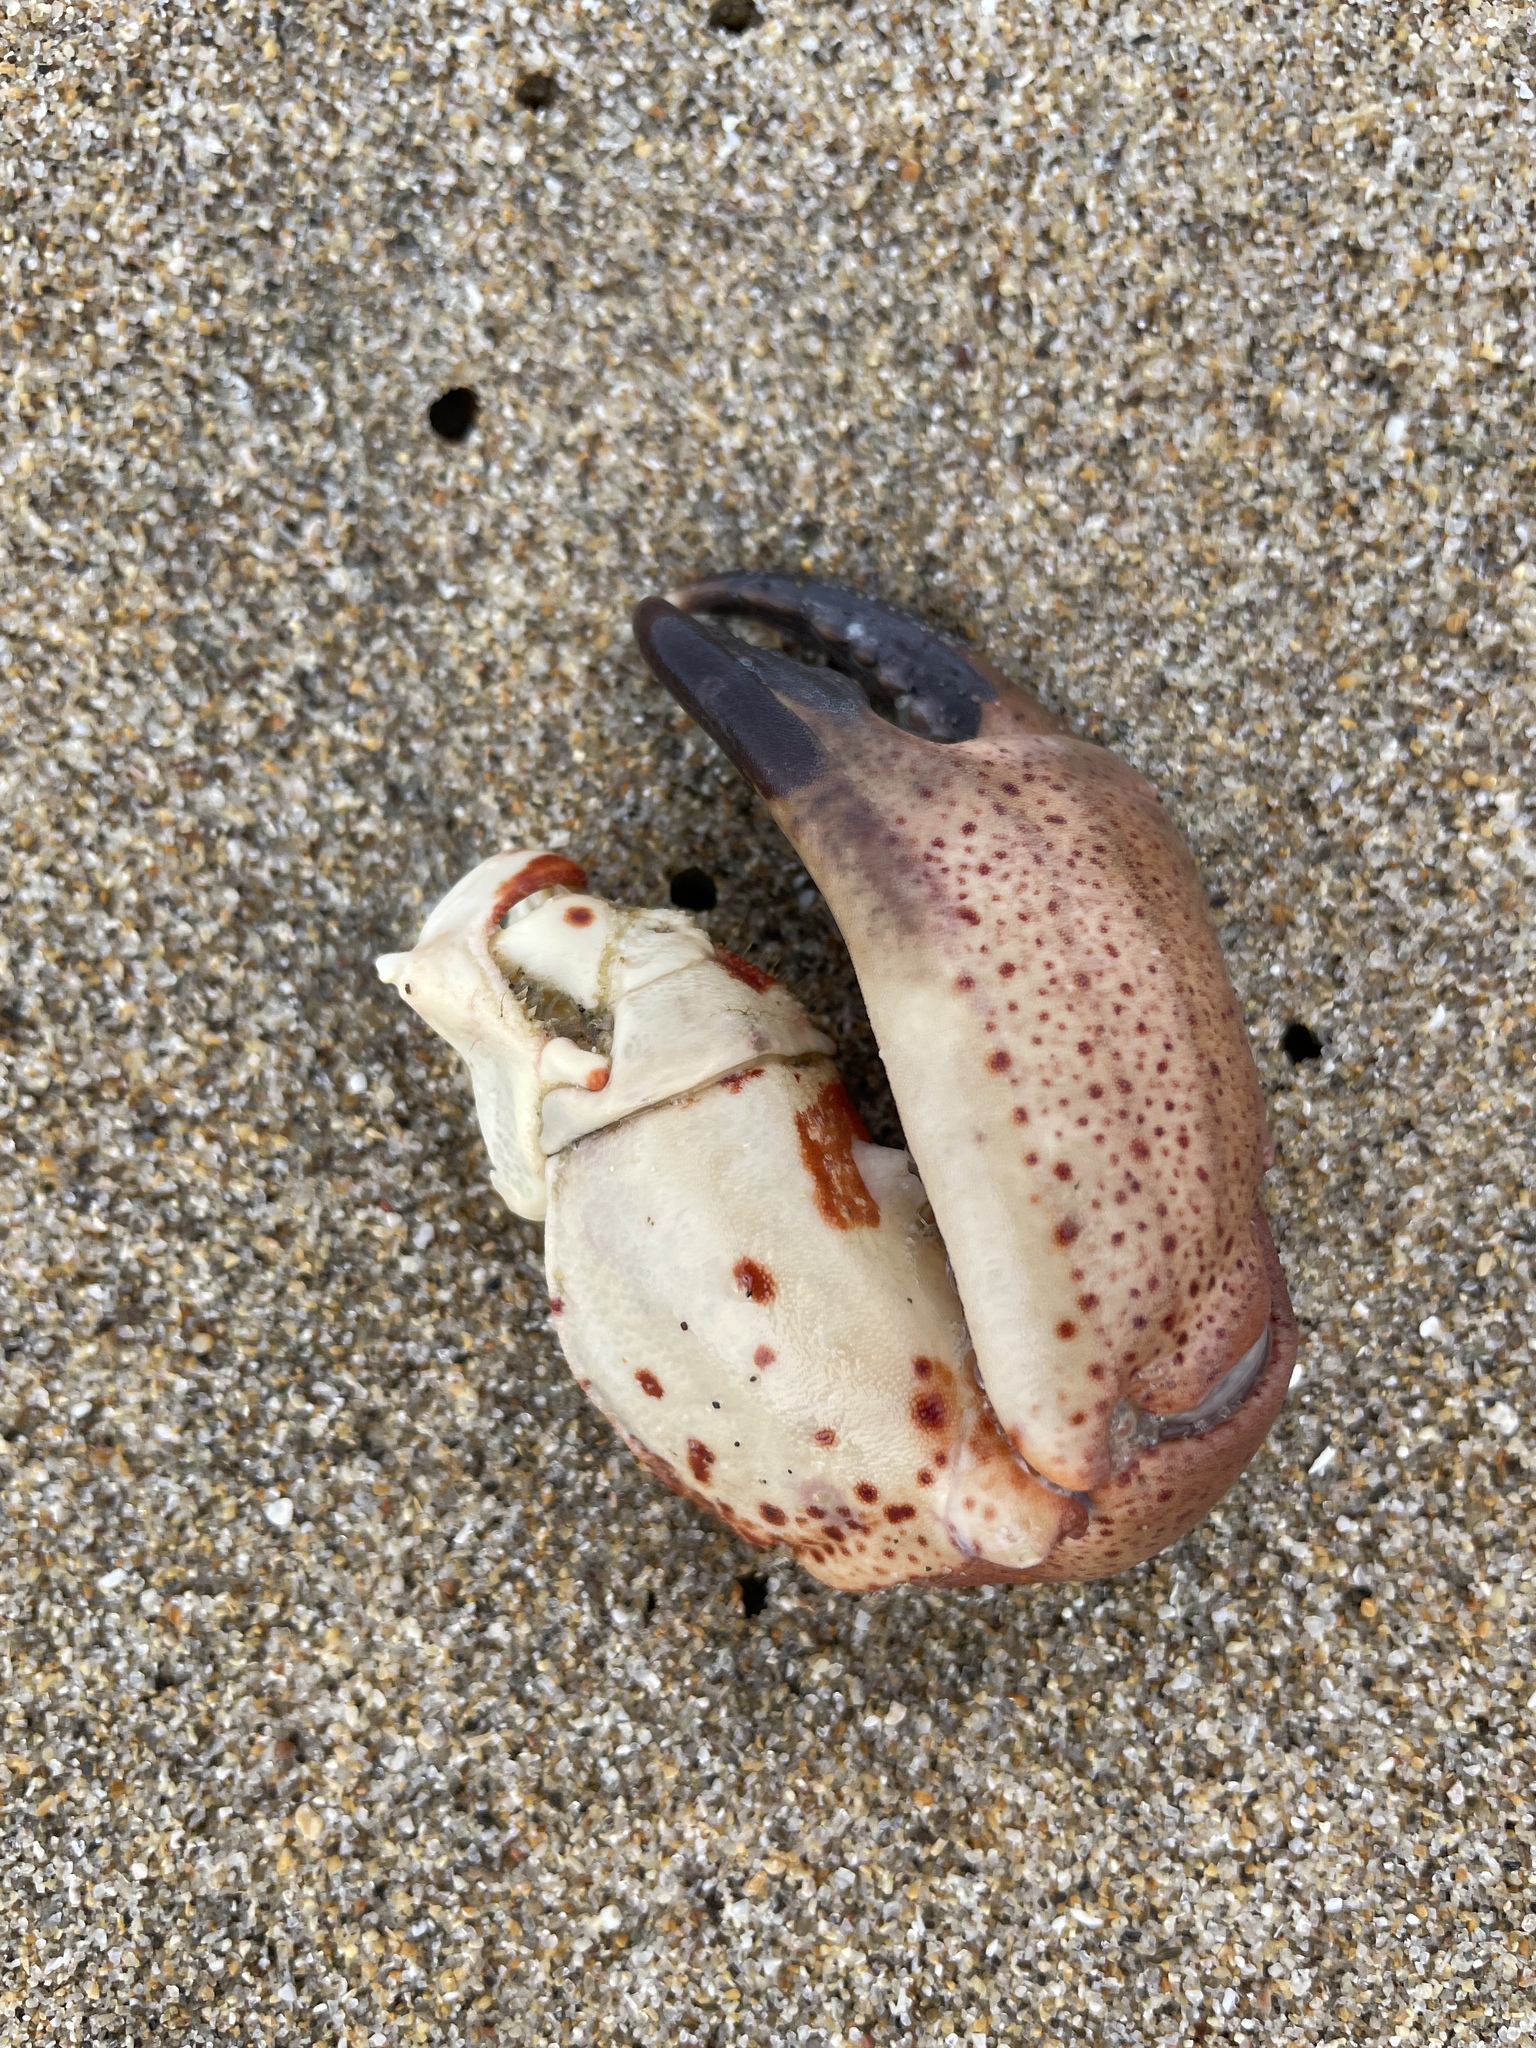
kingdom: Animalia
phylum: Arthropoda
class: Malacostraca
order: Decapoda
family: Cancridae
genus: Romaleon
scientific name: Romaleon antennarium
